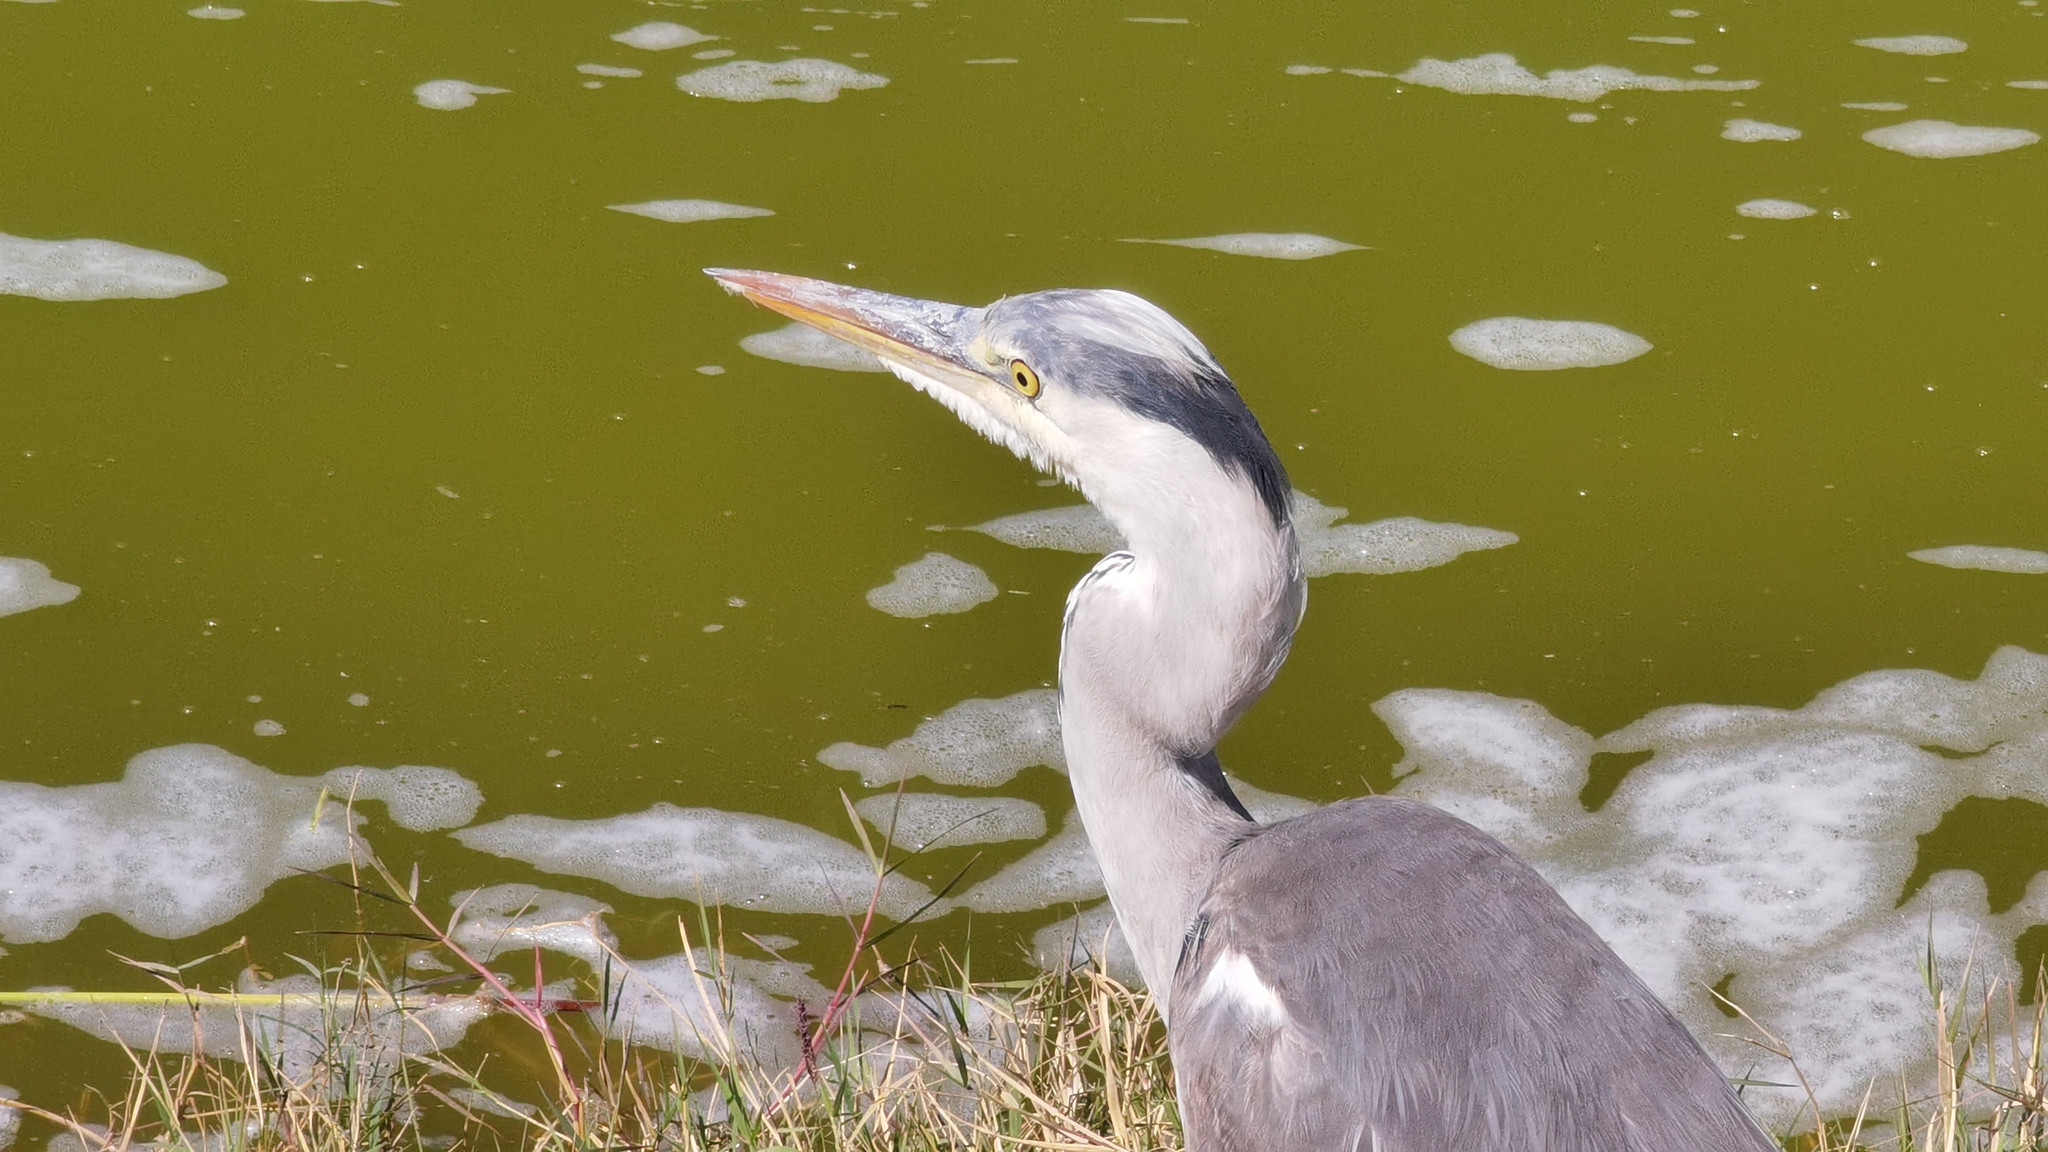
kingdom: Animalia
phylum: Chordata
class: Aves
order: Pelecaniformes
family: Ardeidae
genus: Ardea
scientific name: Ardea cinerea
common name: Grey heron
